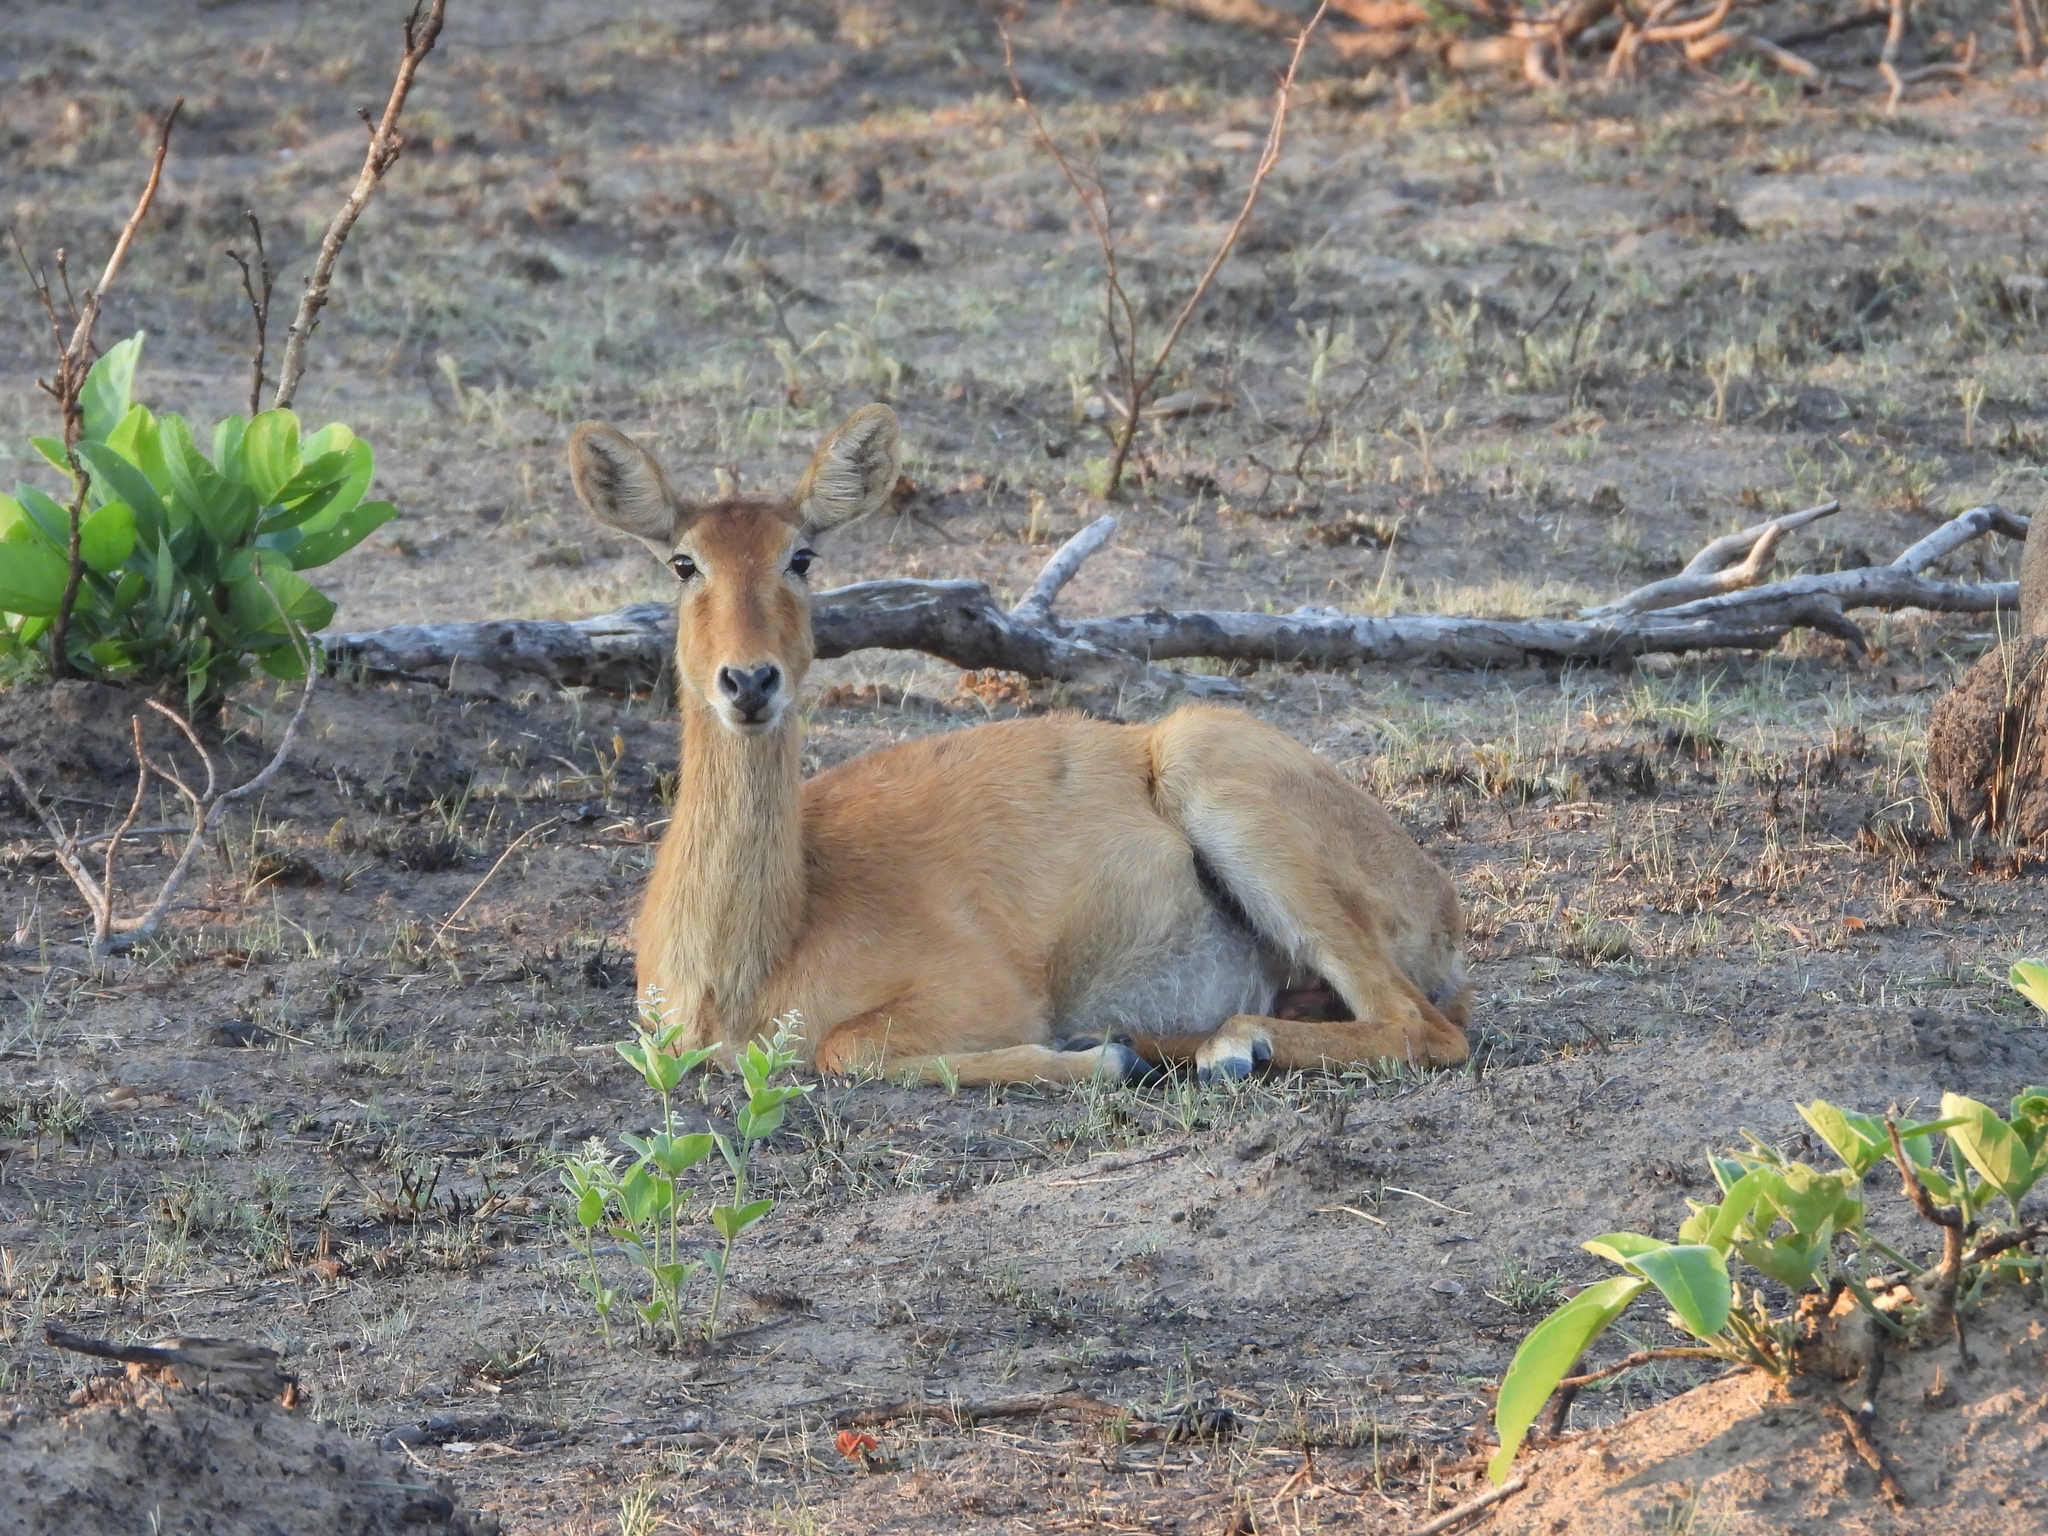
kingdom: Animalia
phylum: Chordata
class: Mammalia
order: Artiodactyla
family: Bovidae
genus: Kobus
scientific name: Kobus vardonii
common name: Puku
